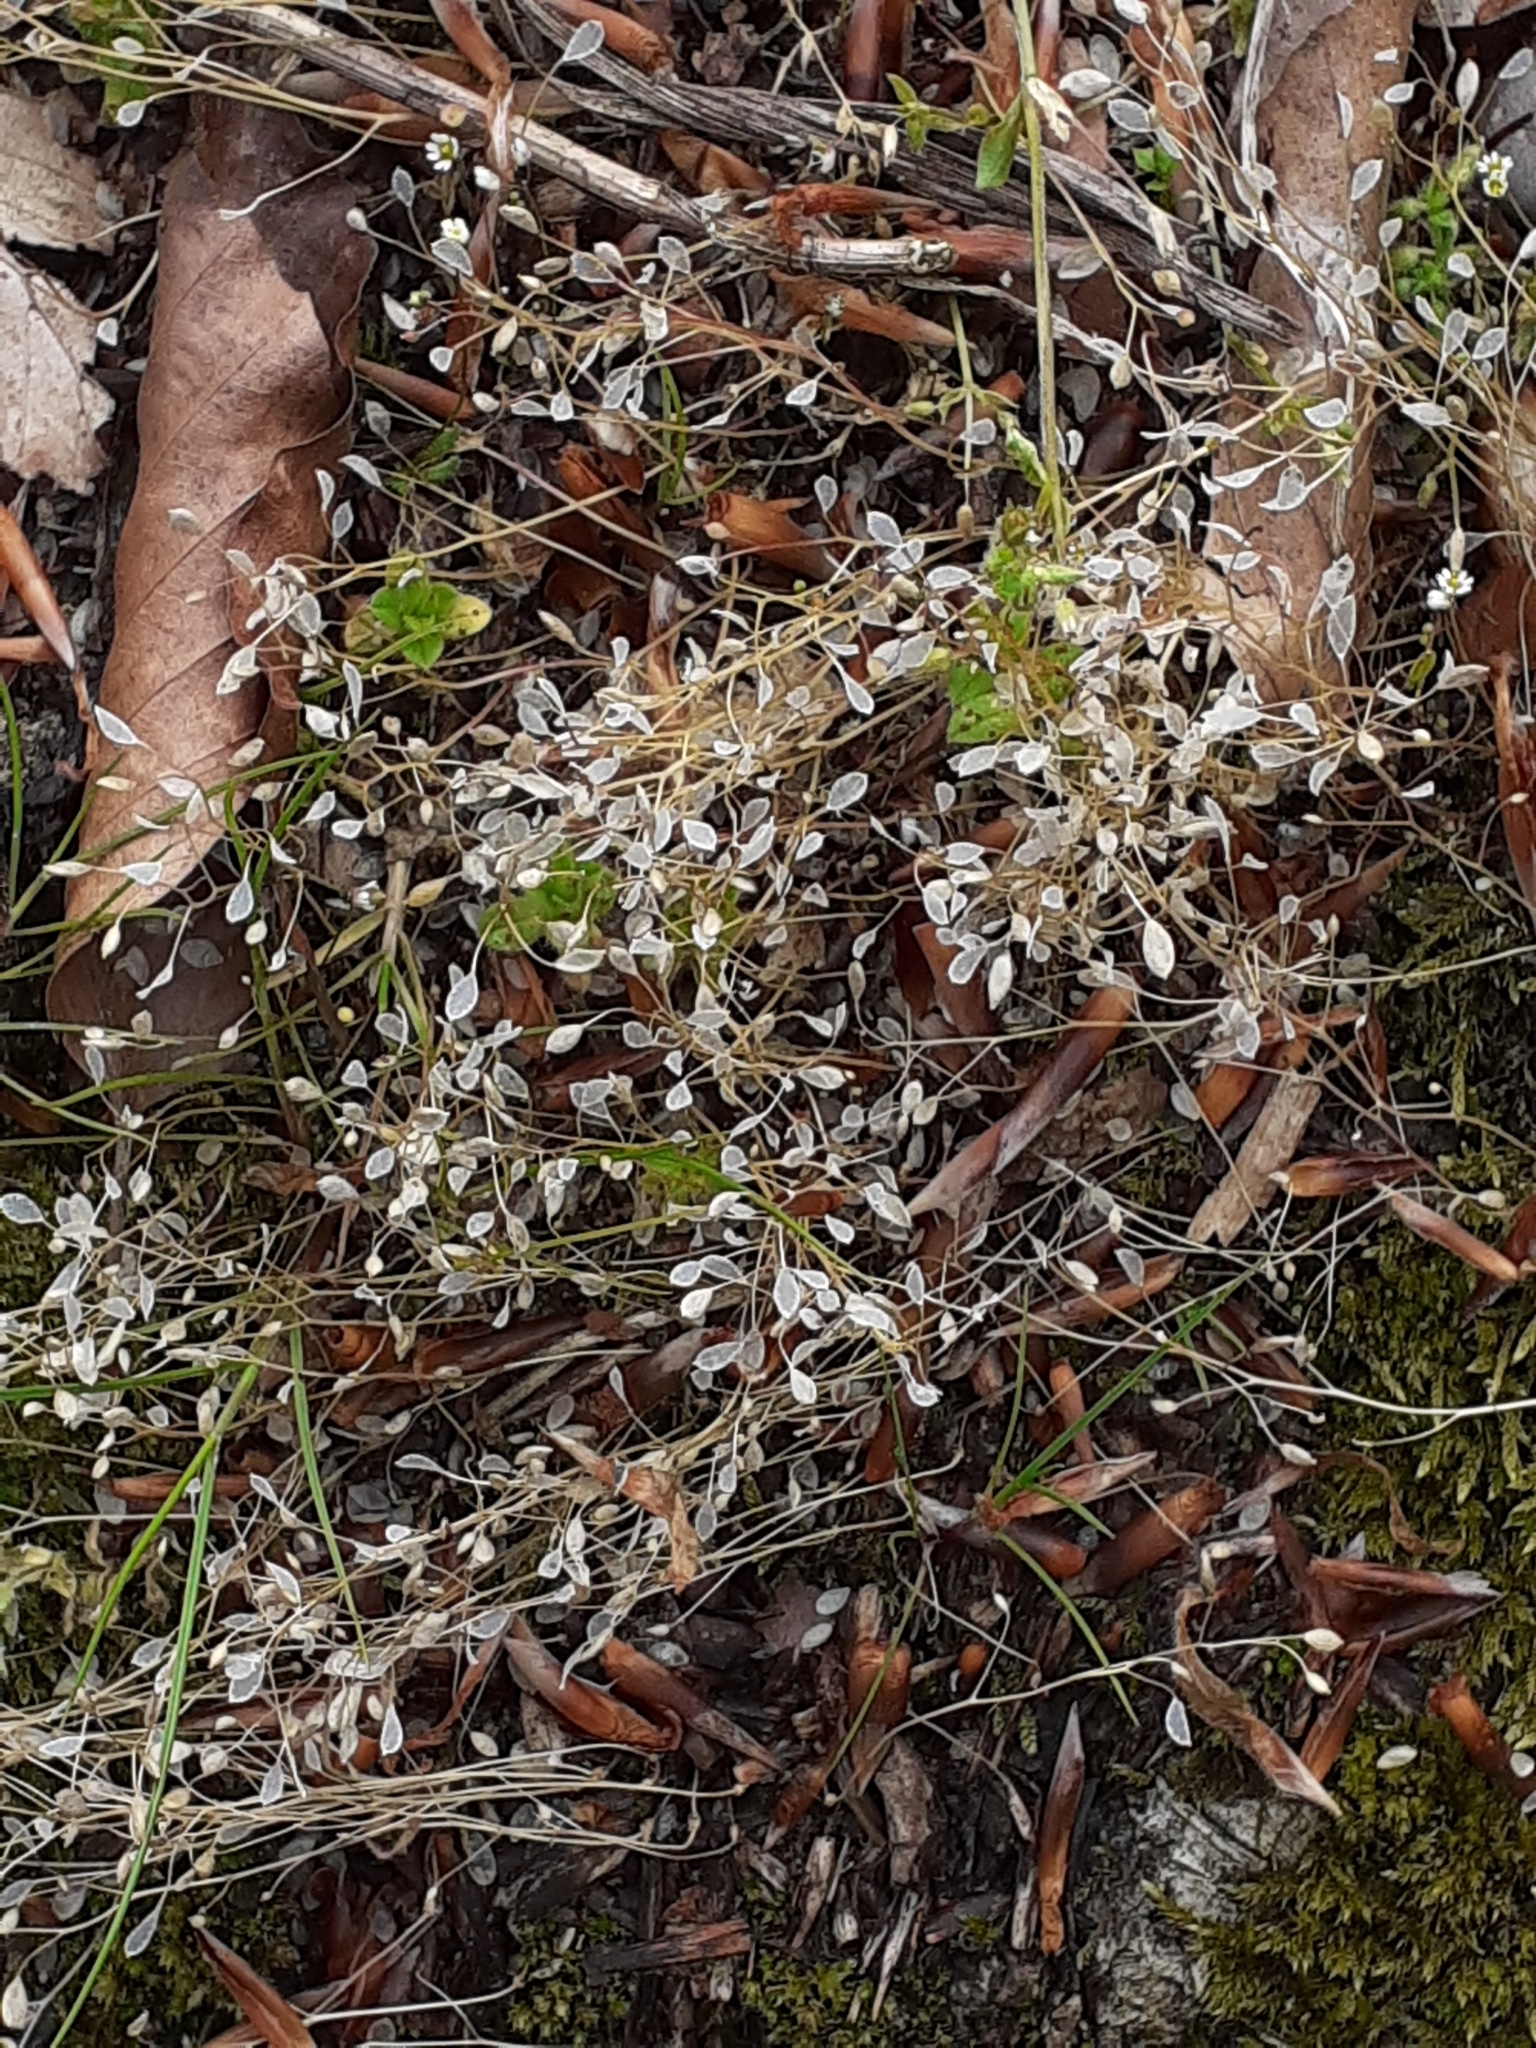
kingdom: Plantae
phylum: Tracheophyta
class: Magnoliopsida
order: Brassicales
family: Brassicaceae
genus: Draba
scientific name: Draba verna
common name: Spring draba
